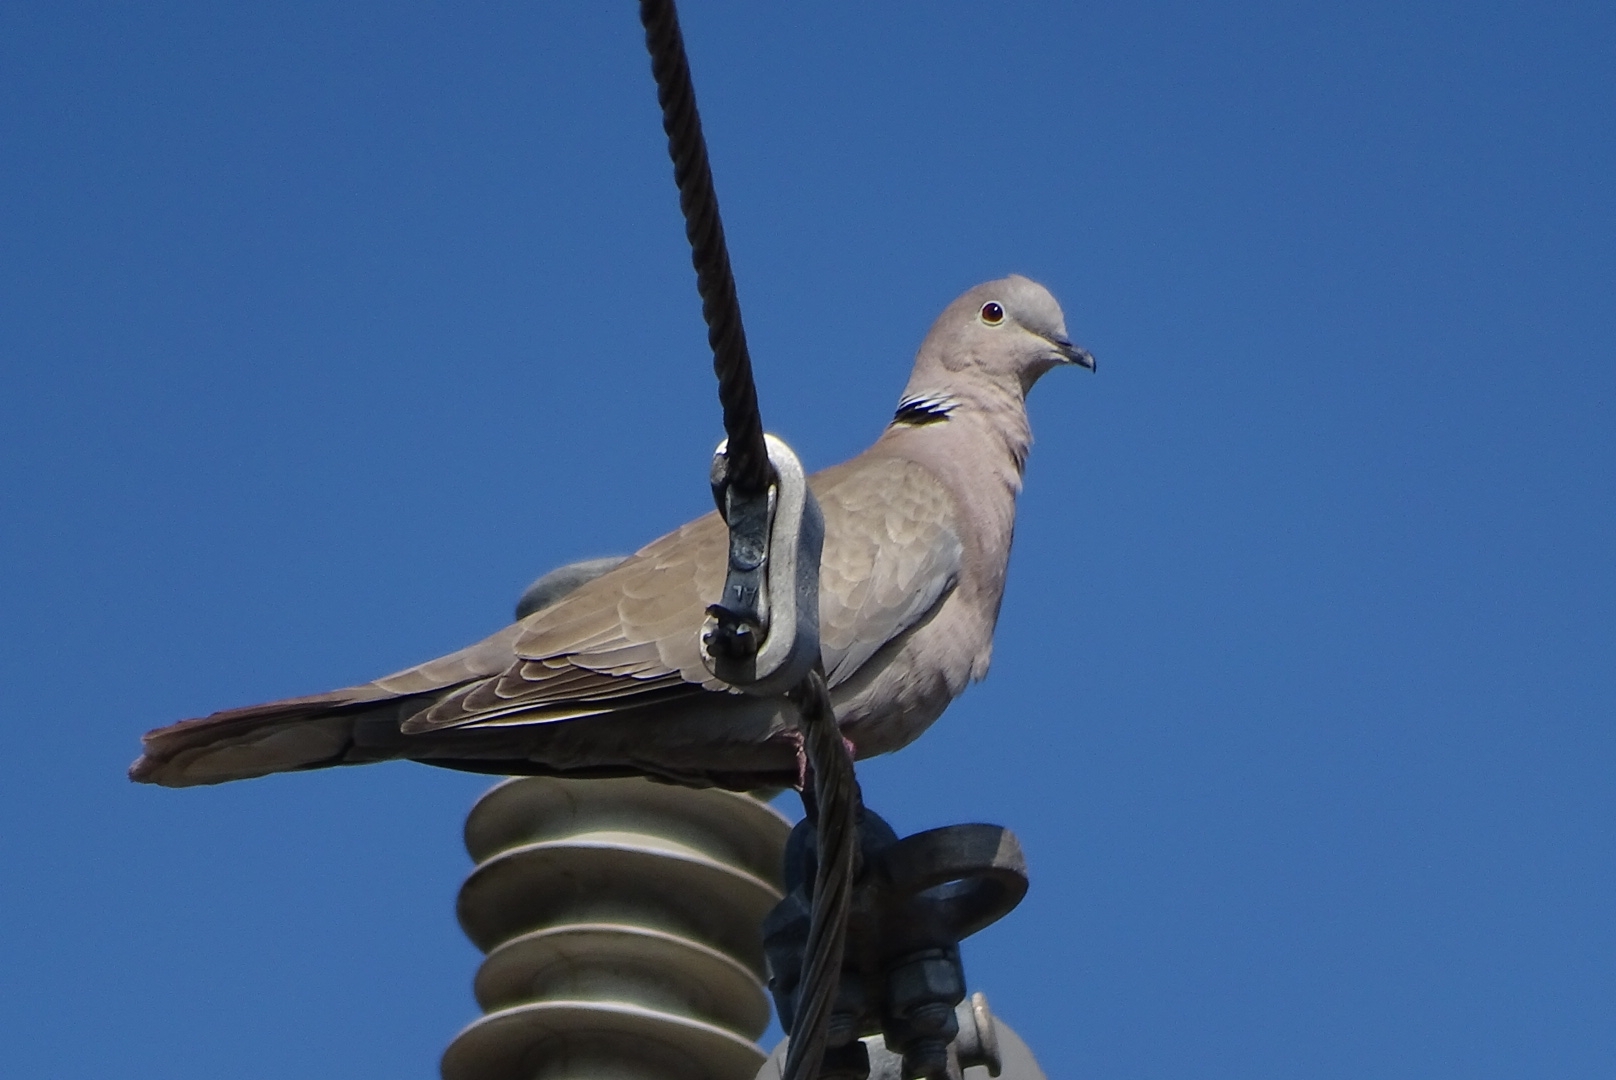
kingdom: Animalia
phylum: Chordata
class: Aves
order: Columbiformes
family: Columbidae
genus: Streptopelia
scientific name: Streptopelia decaocto
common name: Eurasian collared dove
